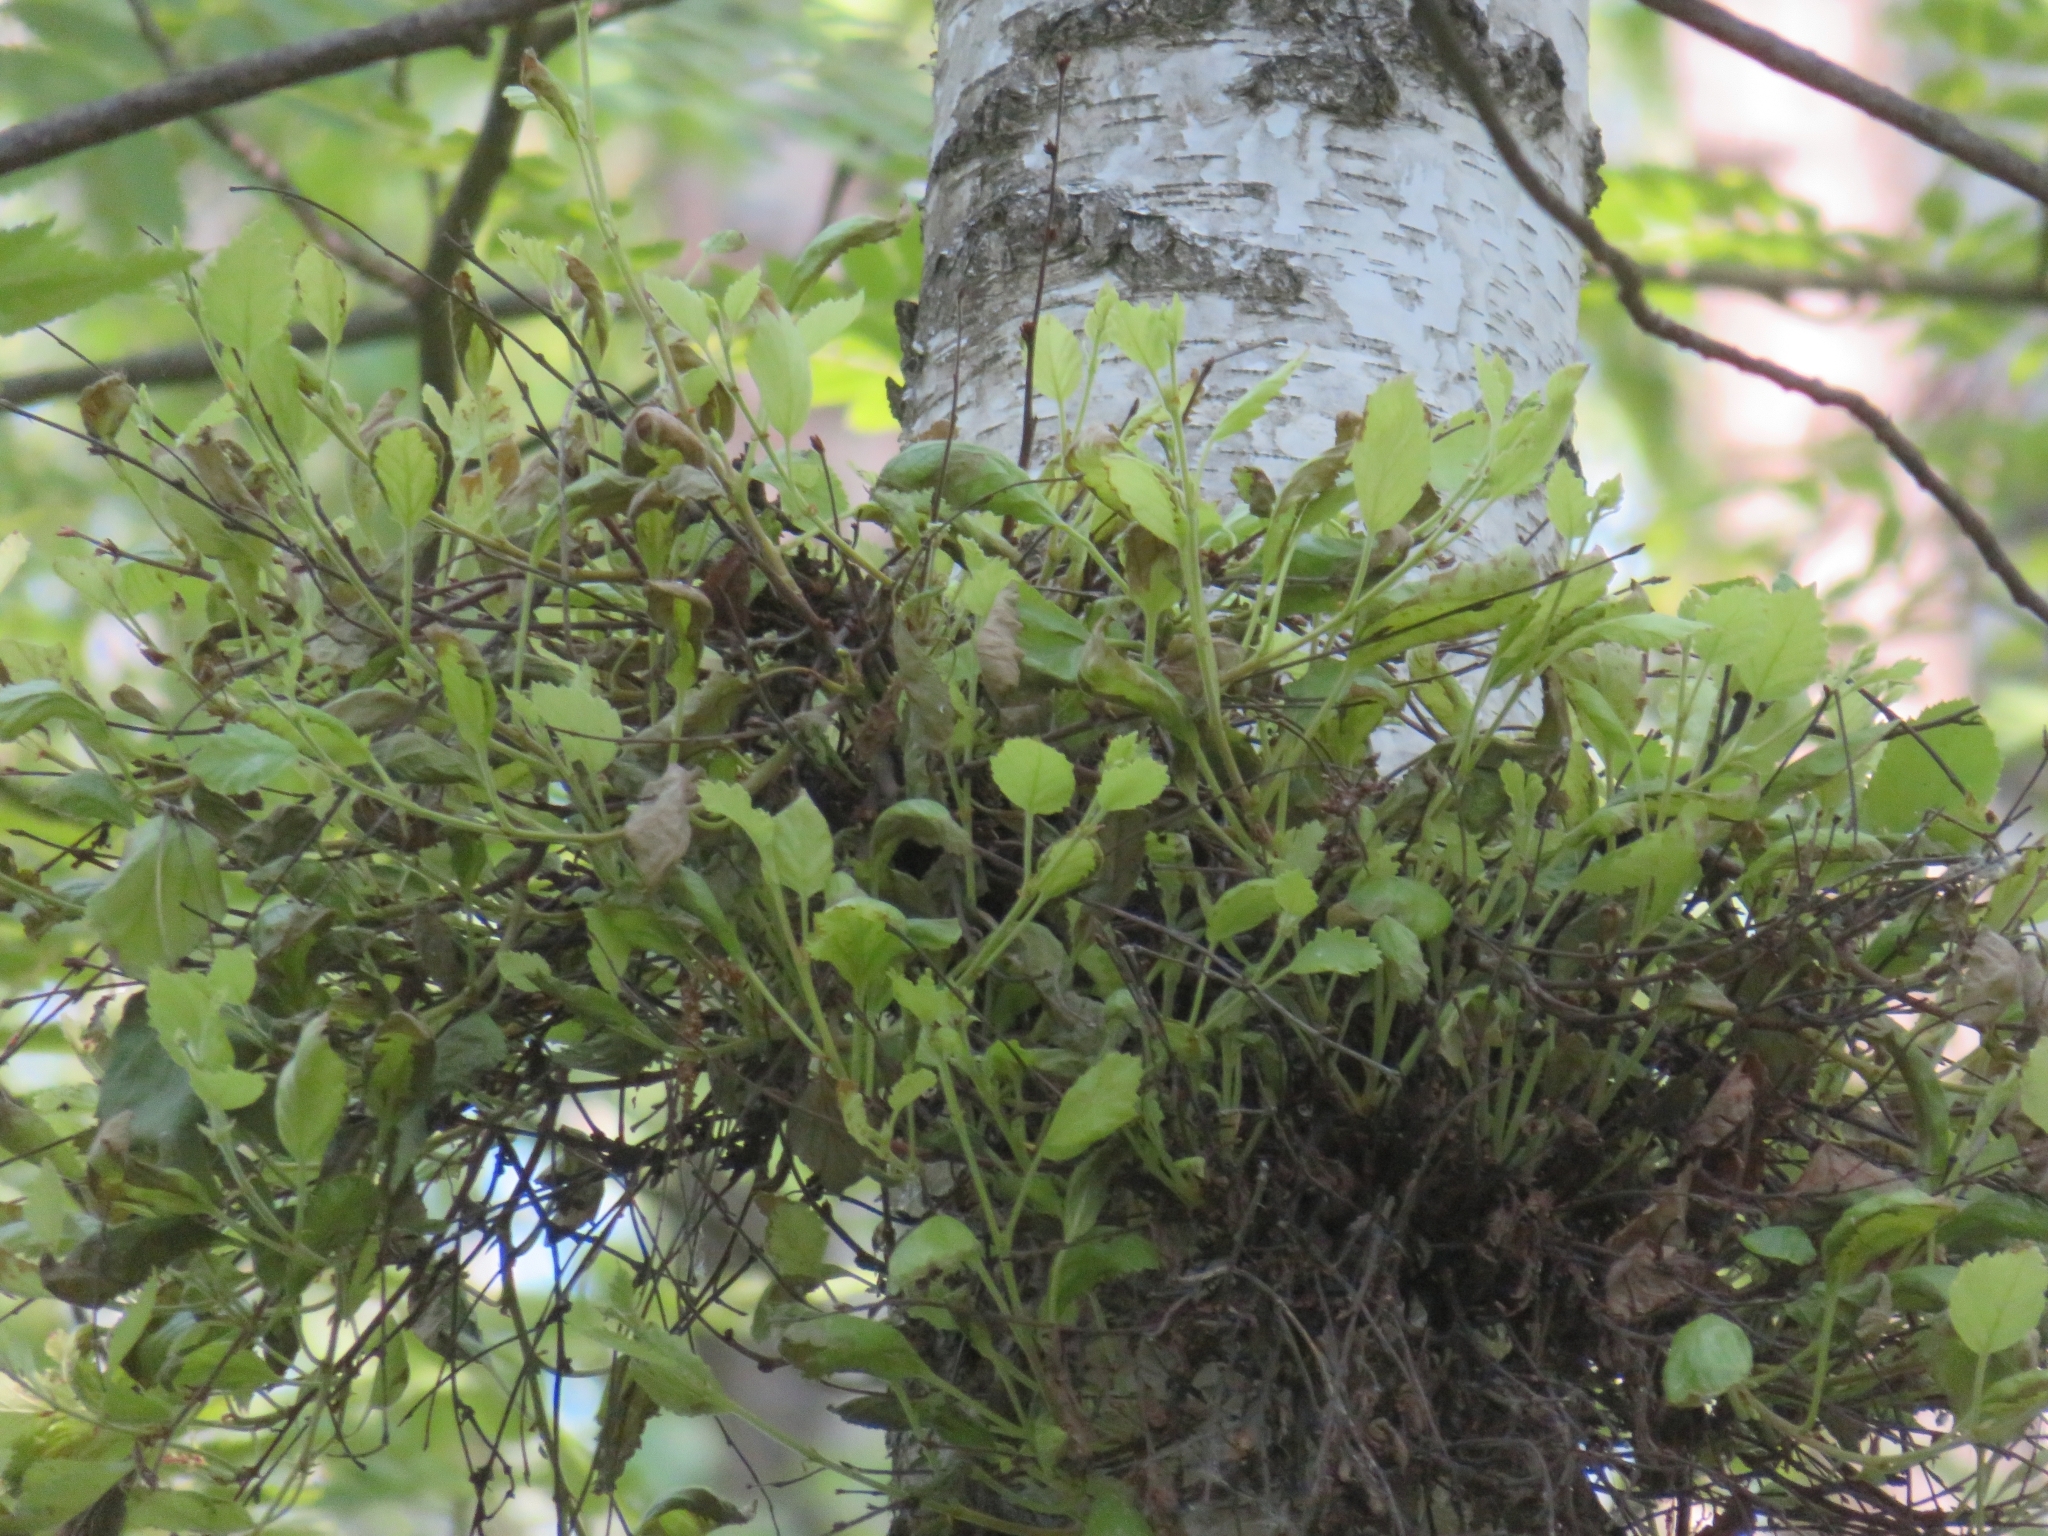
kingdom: Fungi
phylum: Ascomycota
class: Taphrinomycetes
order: Taphrinales
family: Taphrinaceae
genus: Taphrina
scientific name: Taphrina betulina
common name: Birch besom
